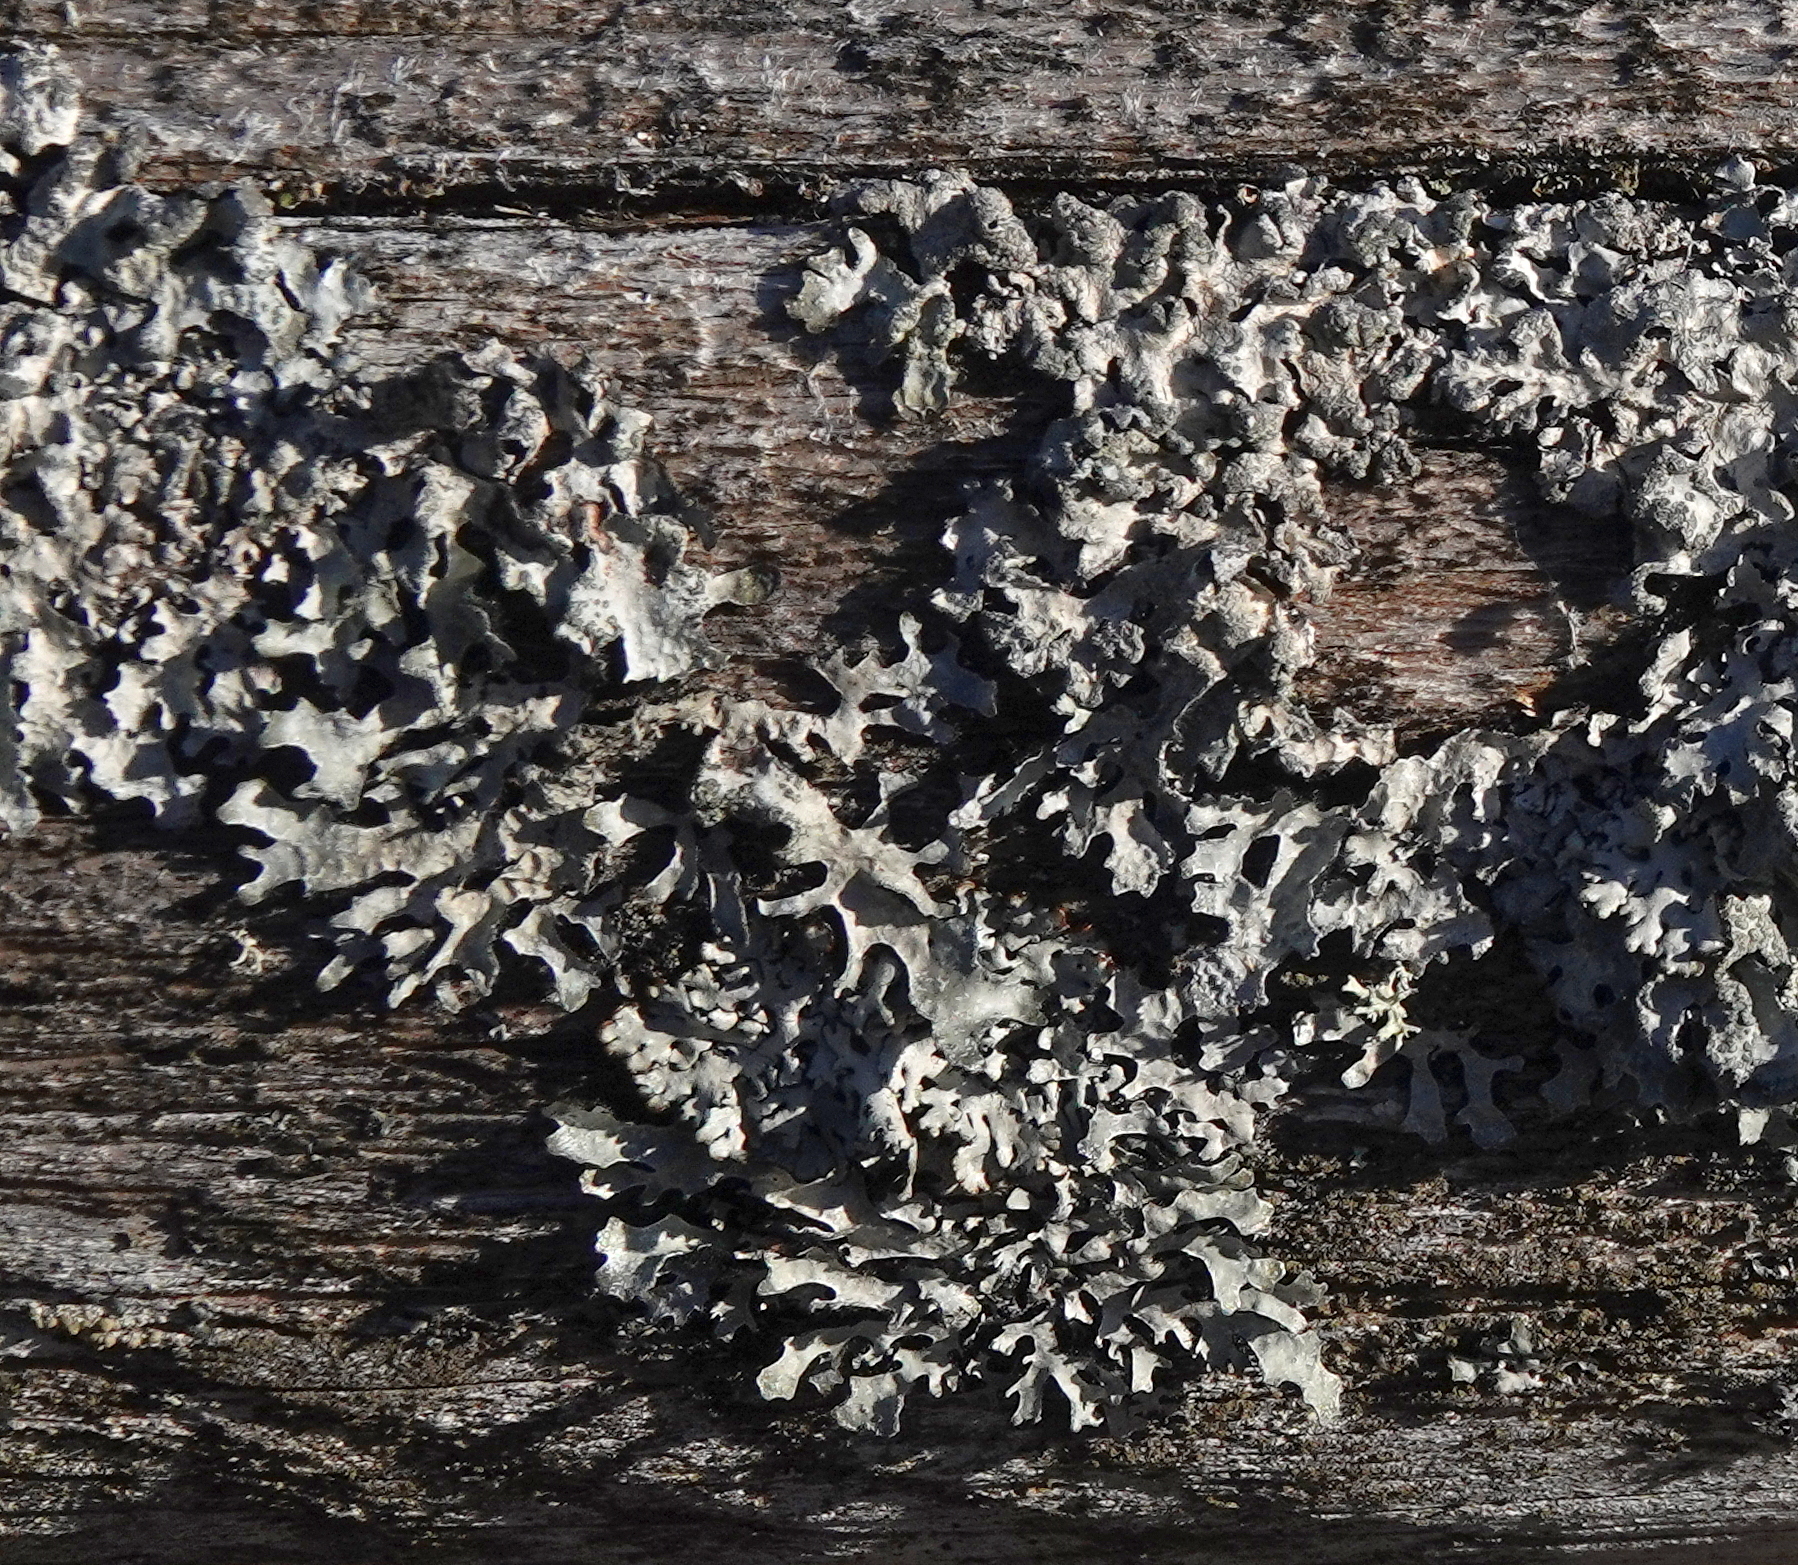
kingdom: Fungi
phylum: Ascomycota
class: Lecanoromycetes
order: Lecanorales
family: Parmeliaceae
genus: Parmelia
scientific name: Parmelia sulcata
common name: Netted shield lichen
